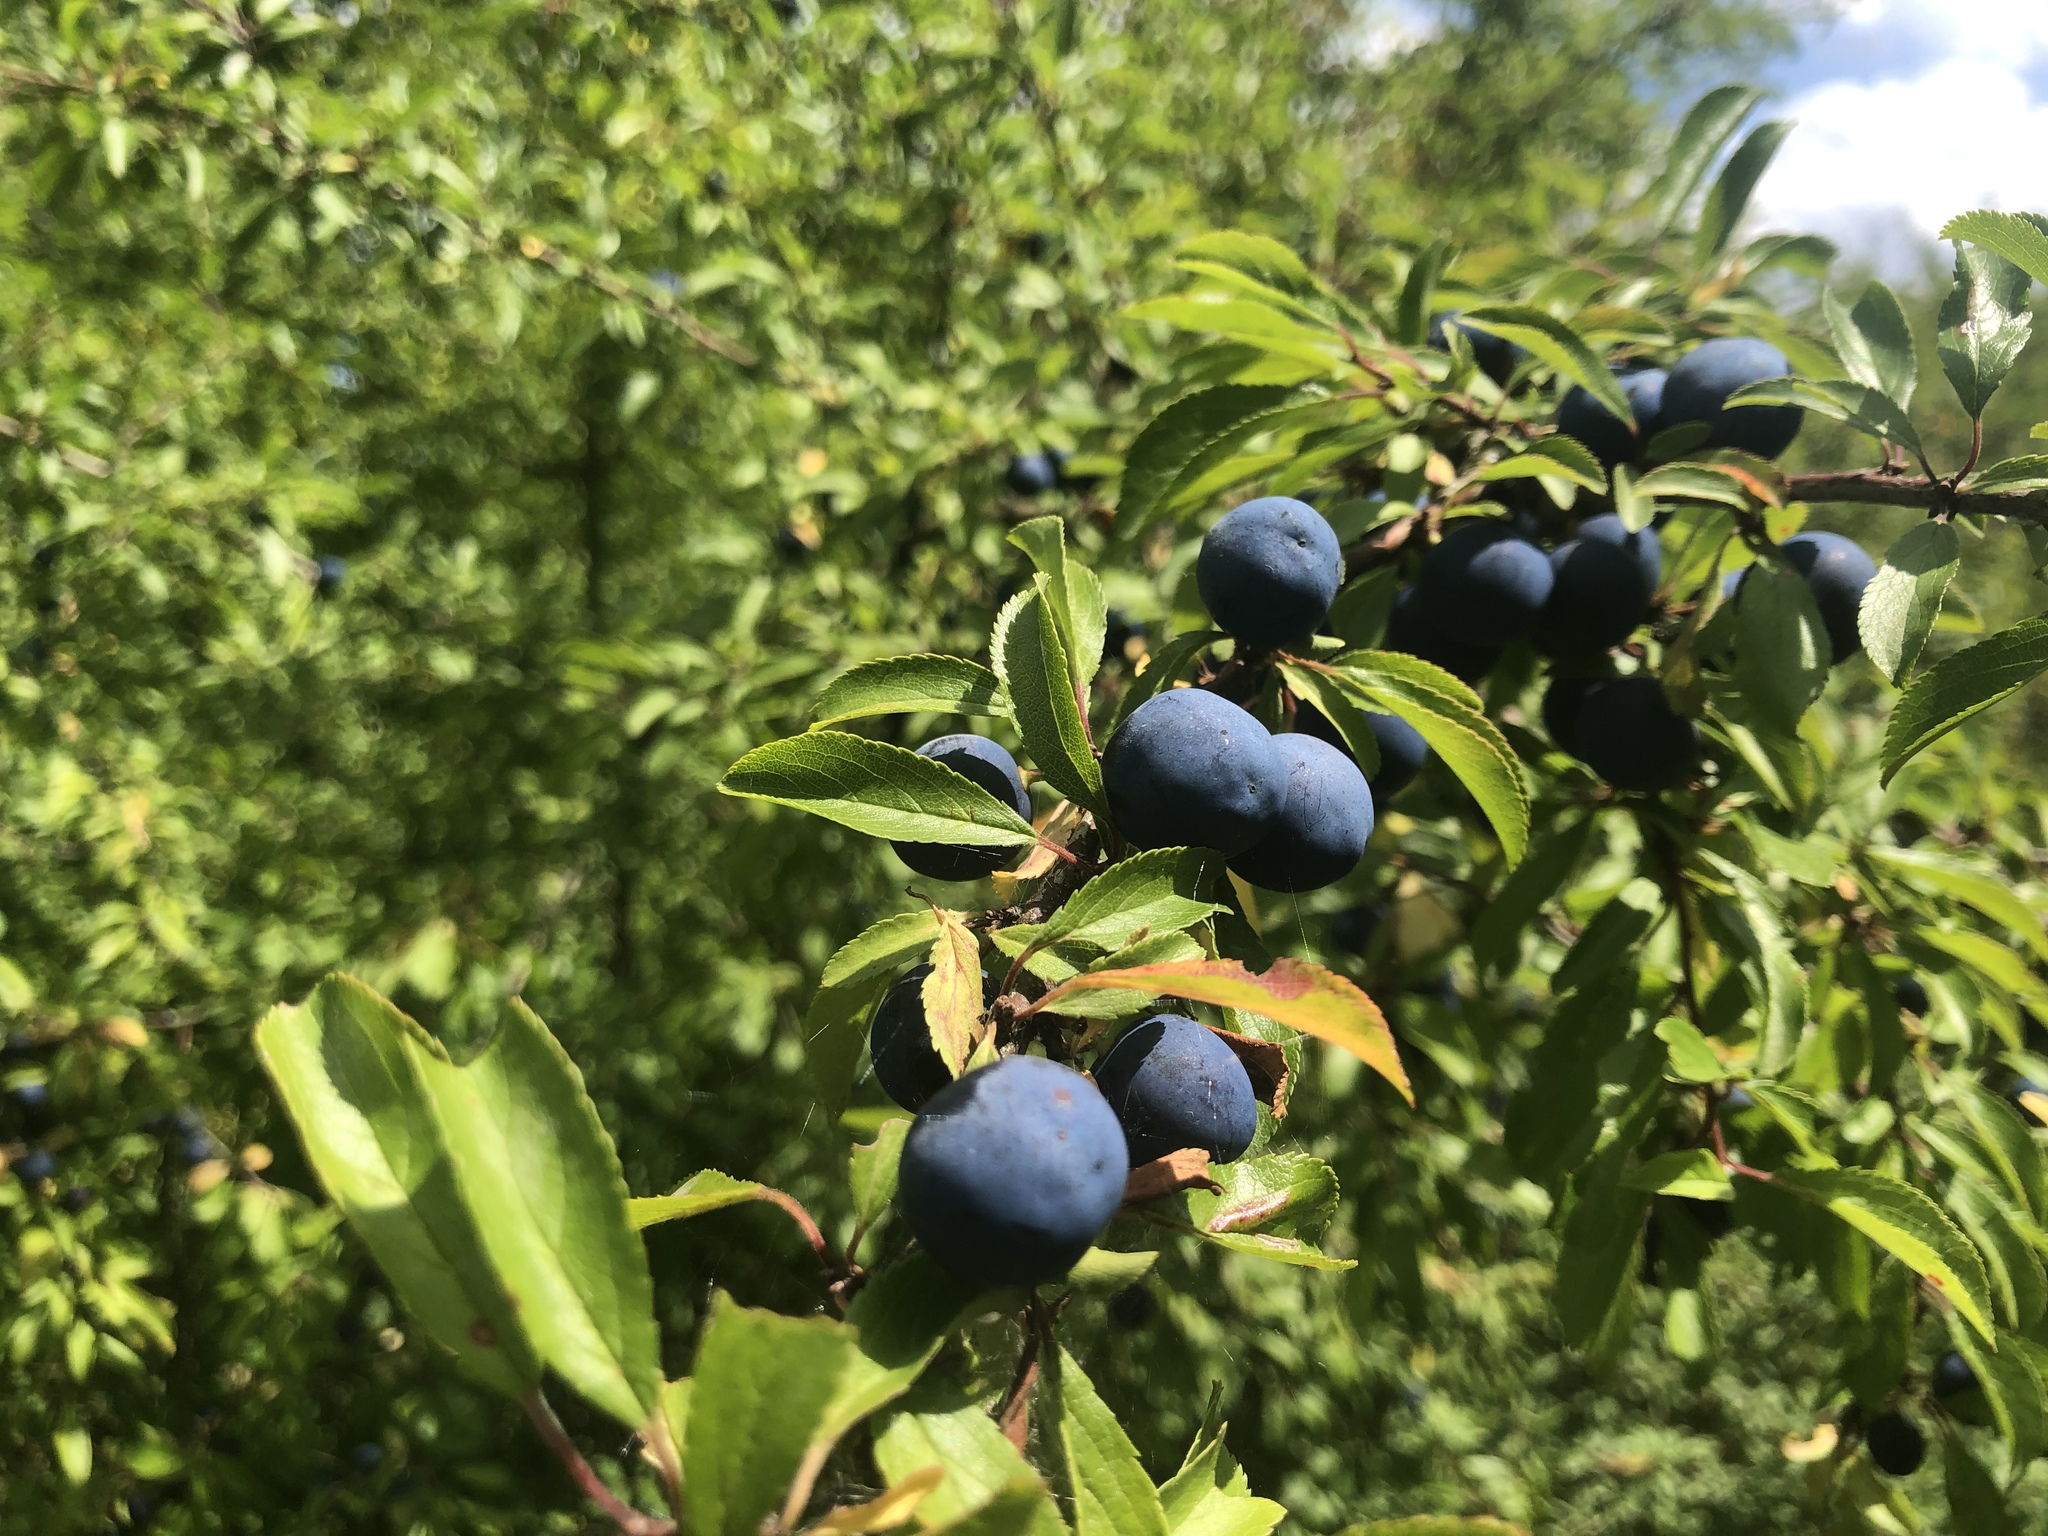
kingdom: Plantae
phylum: Tracheophyta
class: Magnoliopsida
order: Rosales
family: Rosaceae
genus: Prunus
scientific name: Prunus spinosa
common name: Blackthorn
